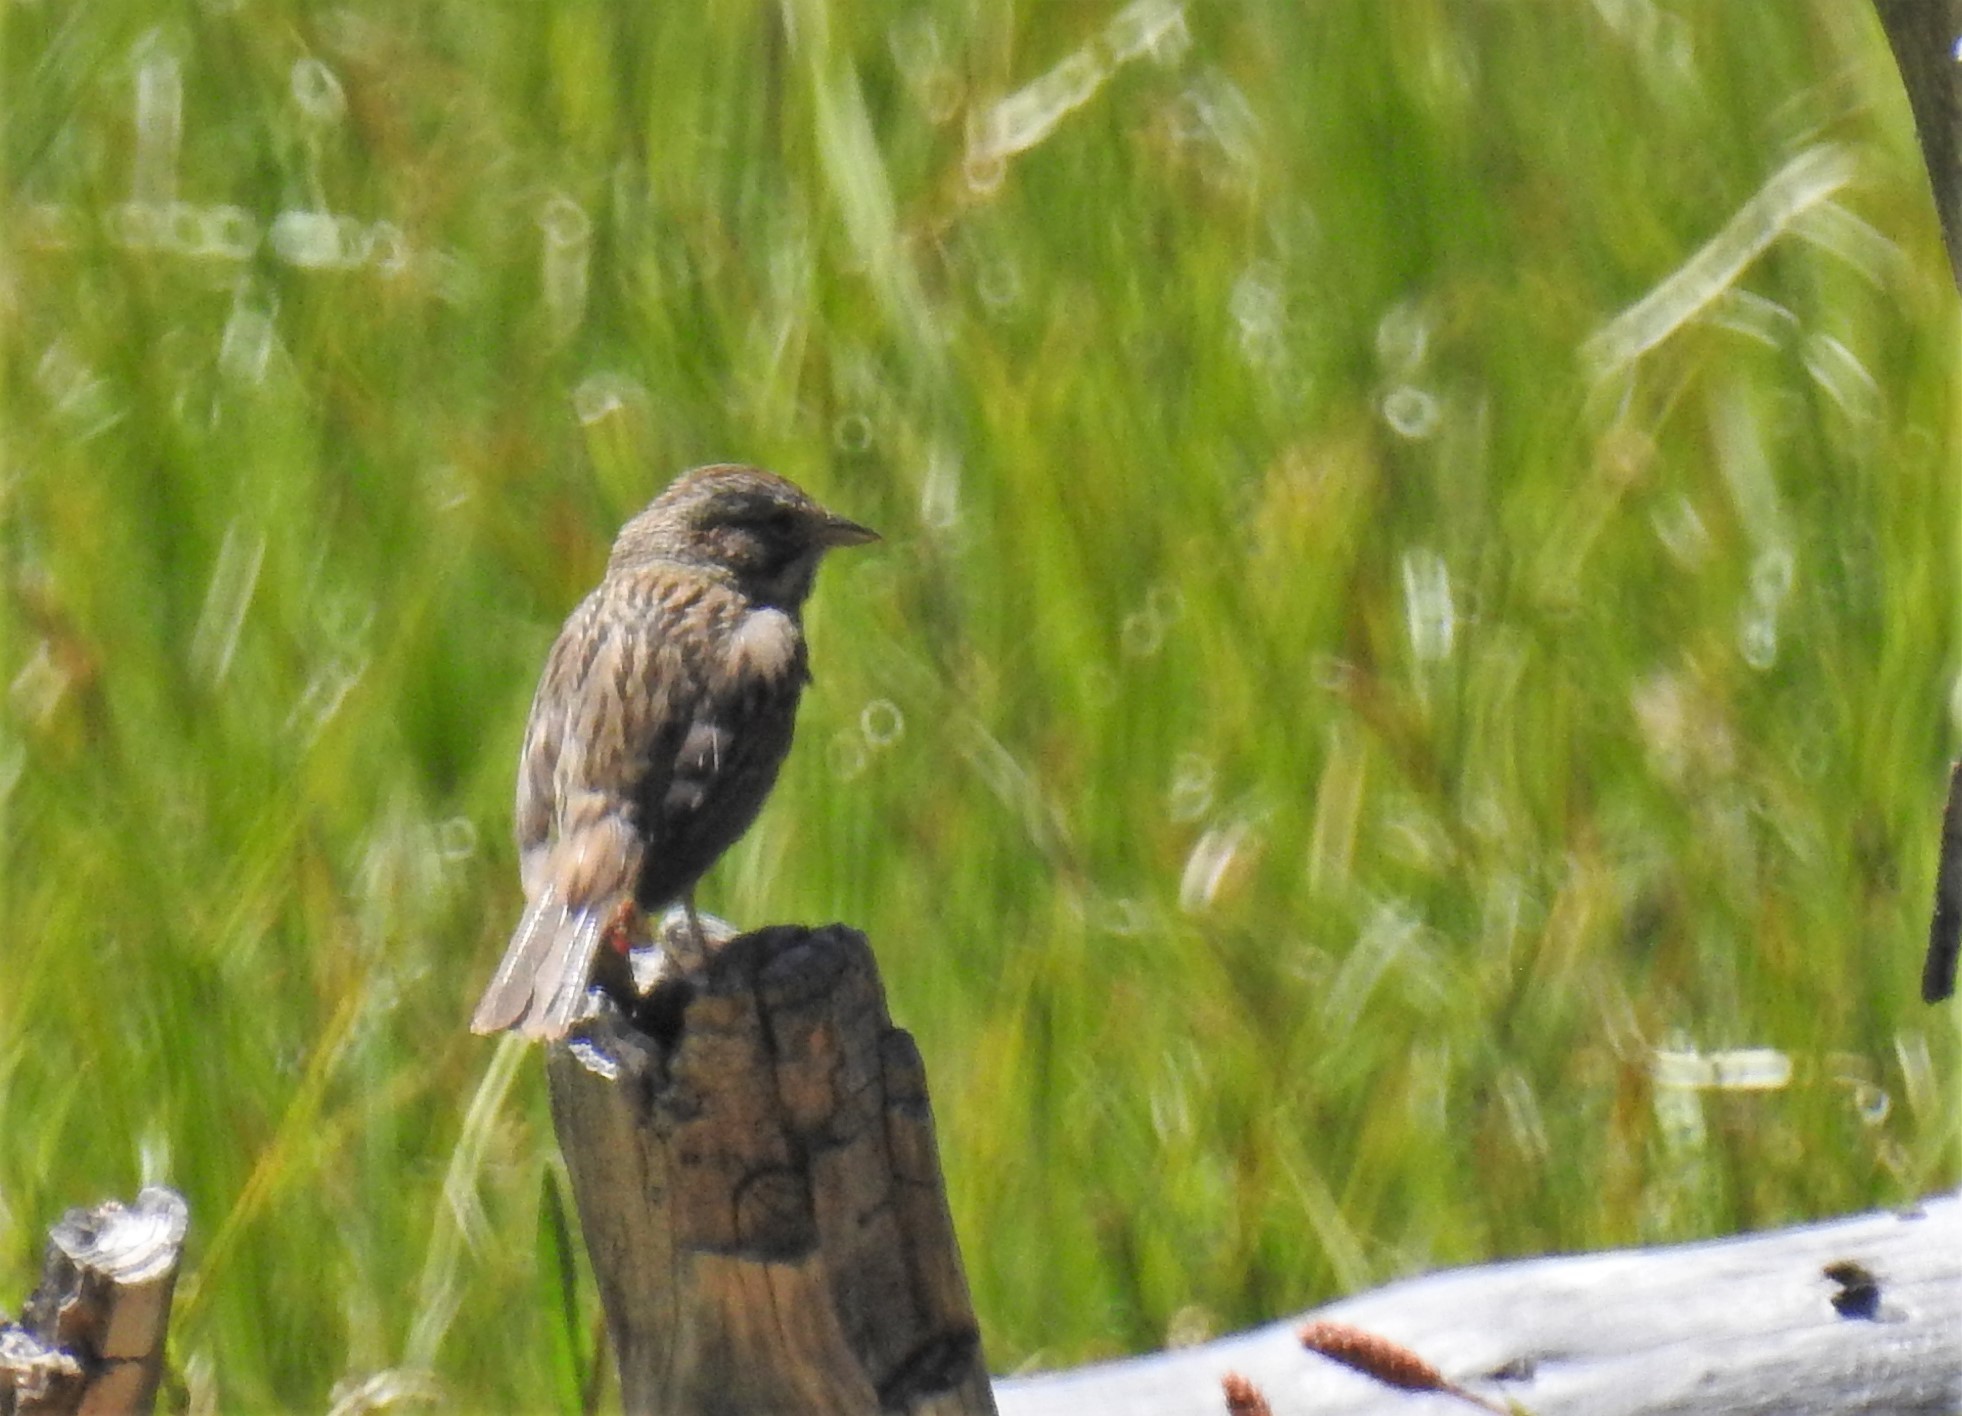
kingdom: Animalia
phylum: Chordata
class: Aves
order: Passeriformes
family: Passerellidae
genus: Passerculus
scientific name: Passerculus sandwichensis
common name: Savannah sparrow
